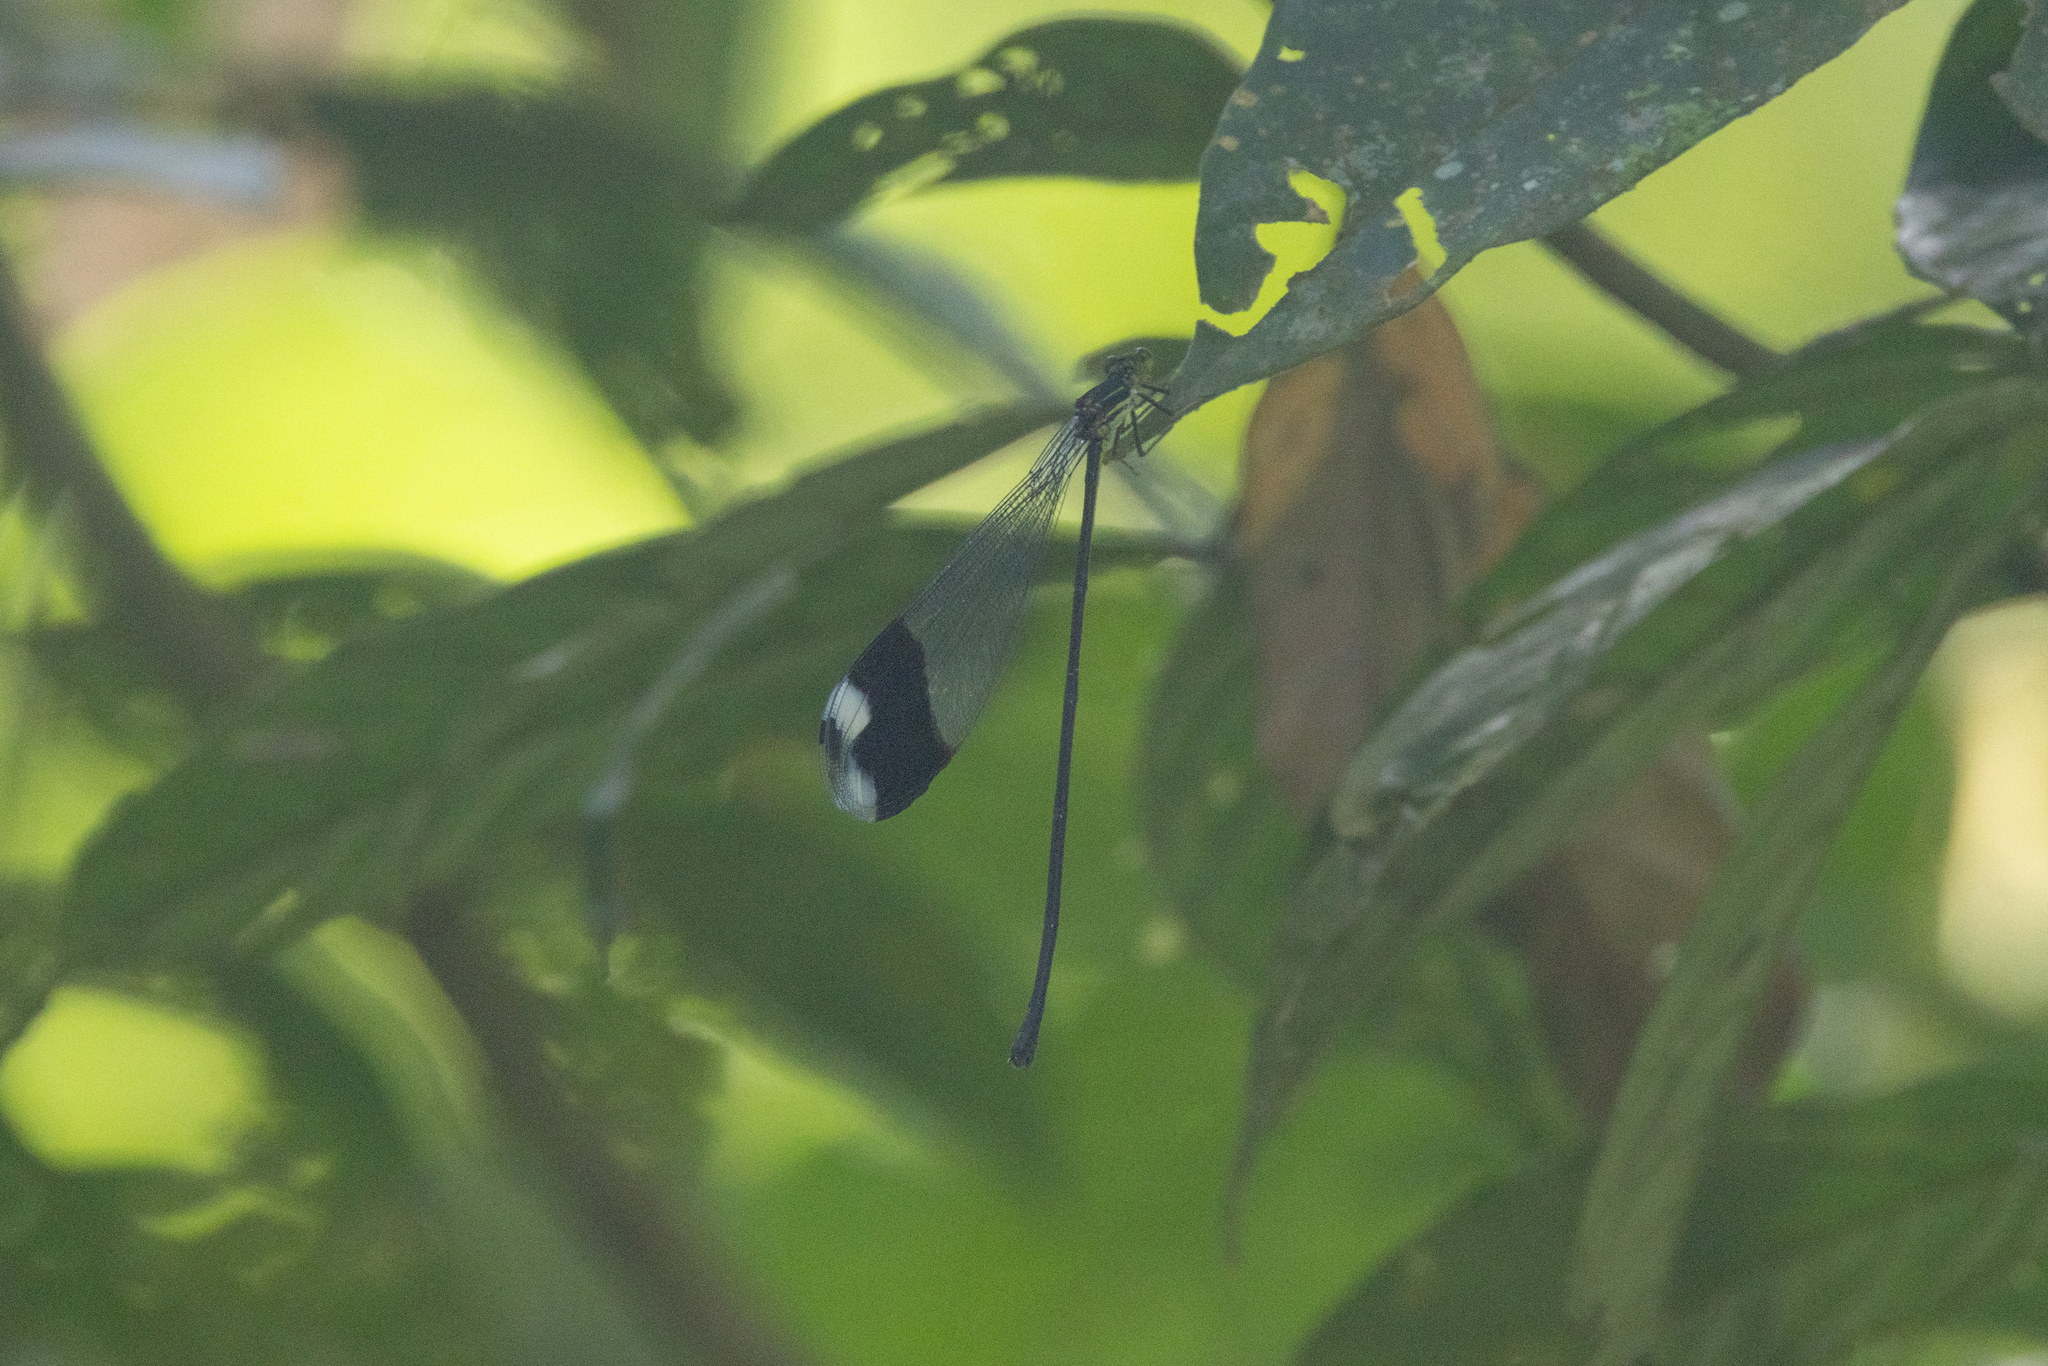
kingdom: Animalia
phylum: Arthropoda
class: Insecta
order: Odonata
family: Coenagrionidae
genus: Megaloprepus
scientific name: Megaloprepus caerulatus
